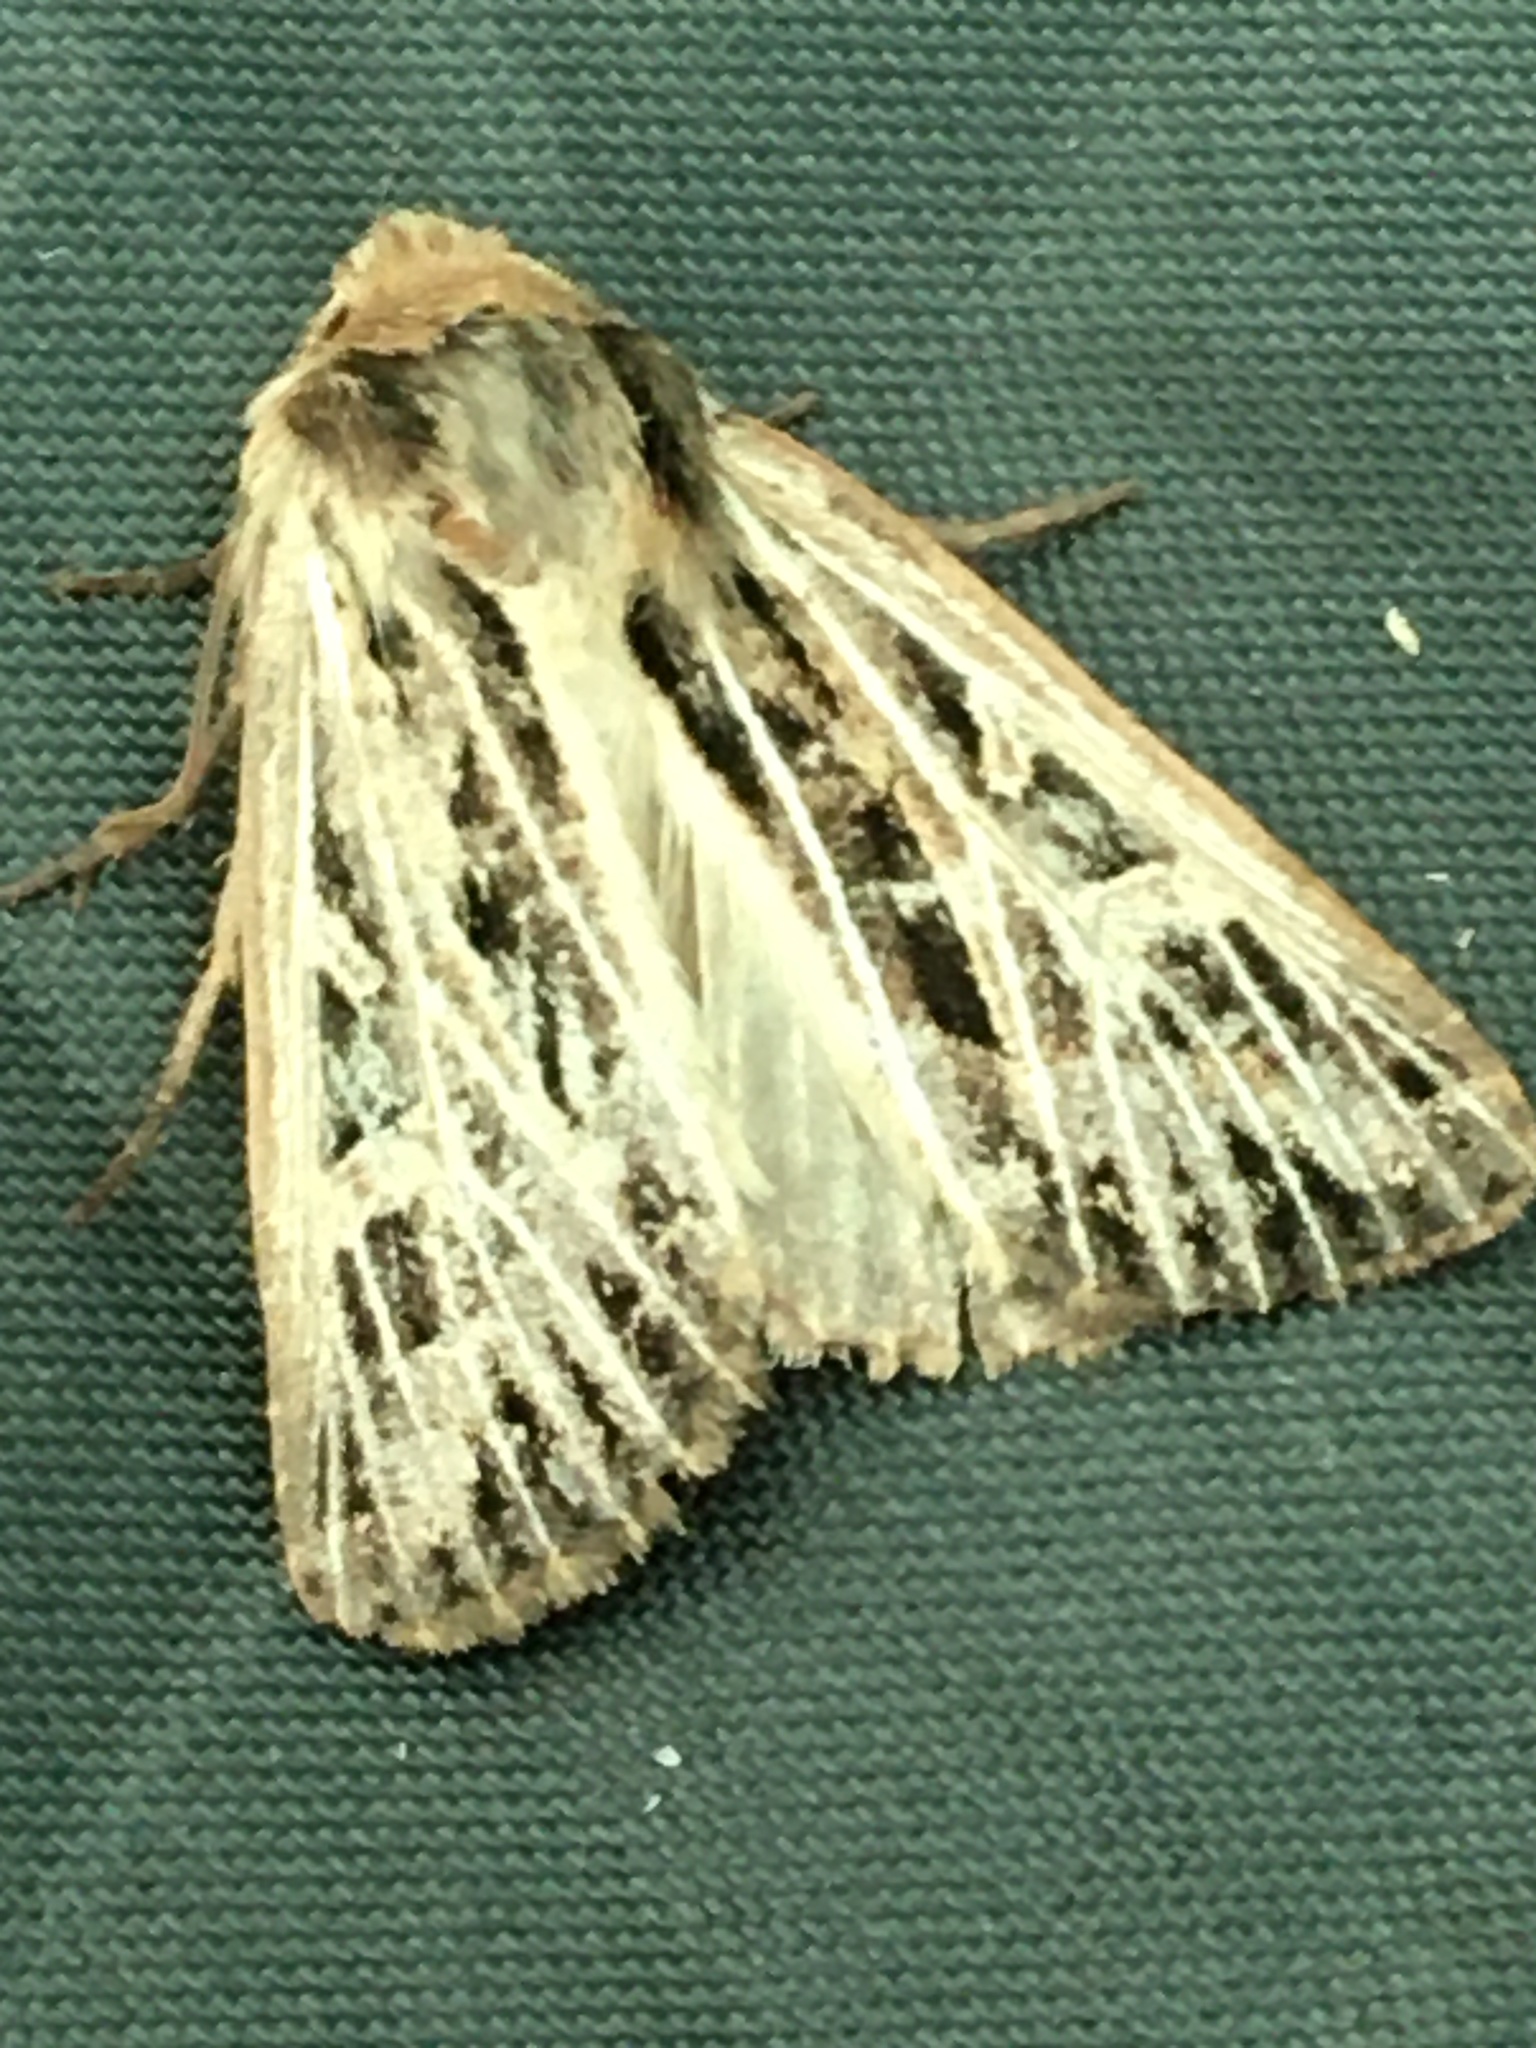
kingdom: Animalia
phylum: Arthropoda
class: Insecta
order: Lepidoptera
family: Noctuidae
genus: Apamea
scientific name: Apamea niveivenosa
